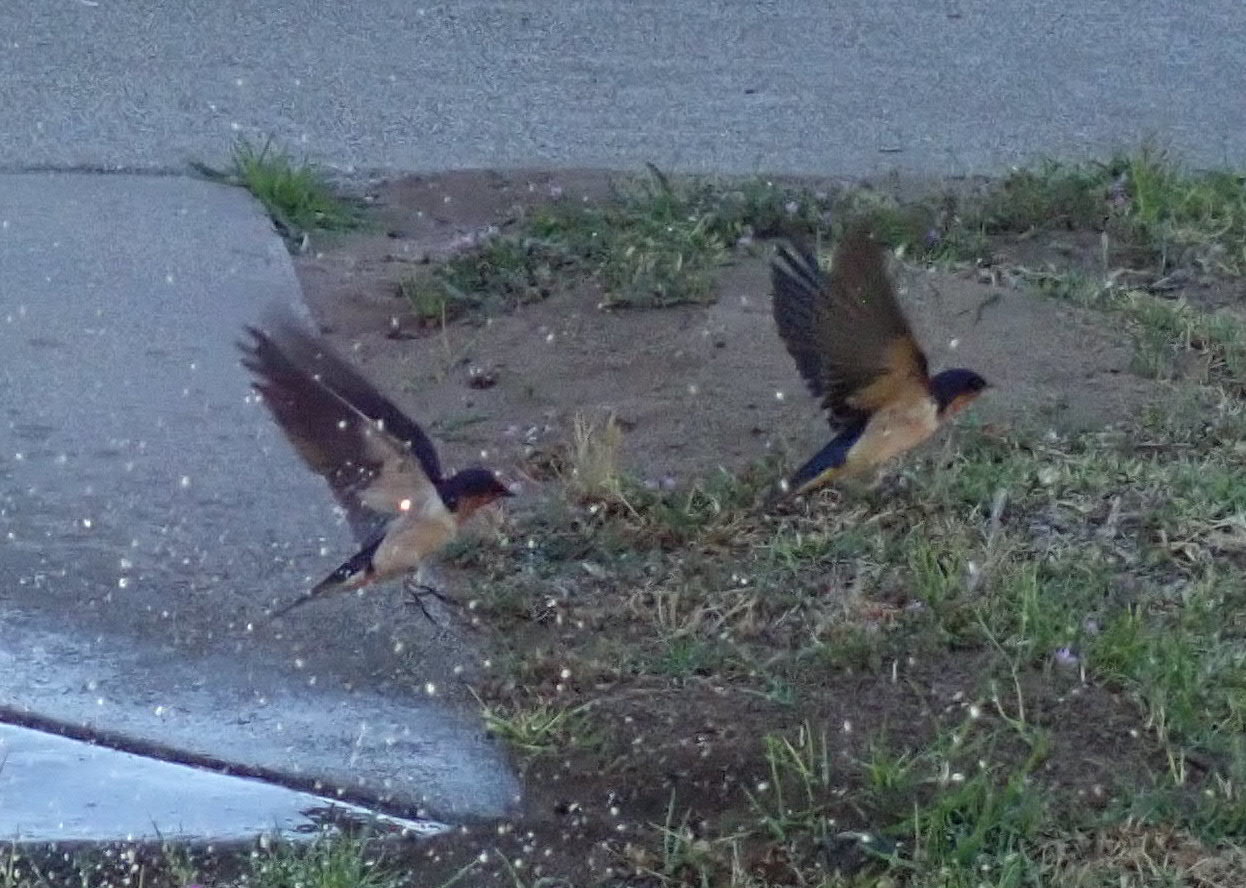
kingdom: Animalia
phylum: Chordata
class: Aves
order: Passeriformes
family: Hirundinidae
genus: Hirundo
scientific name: Hirundo rustica
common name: Barn swallow
